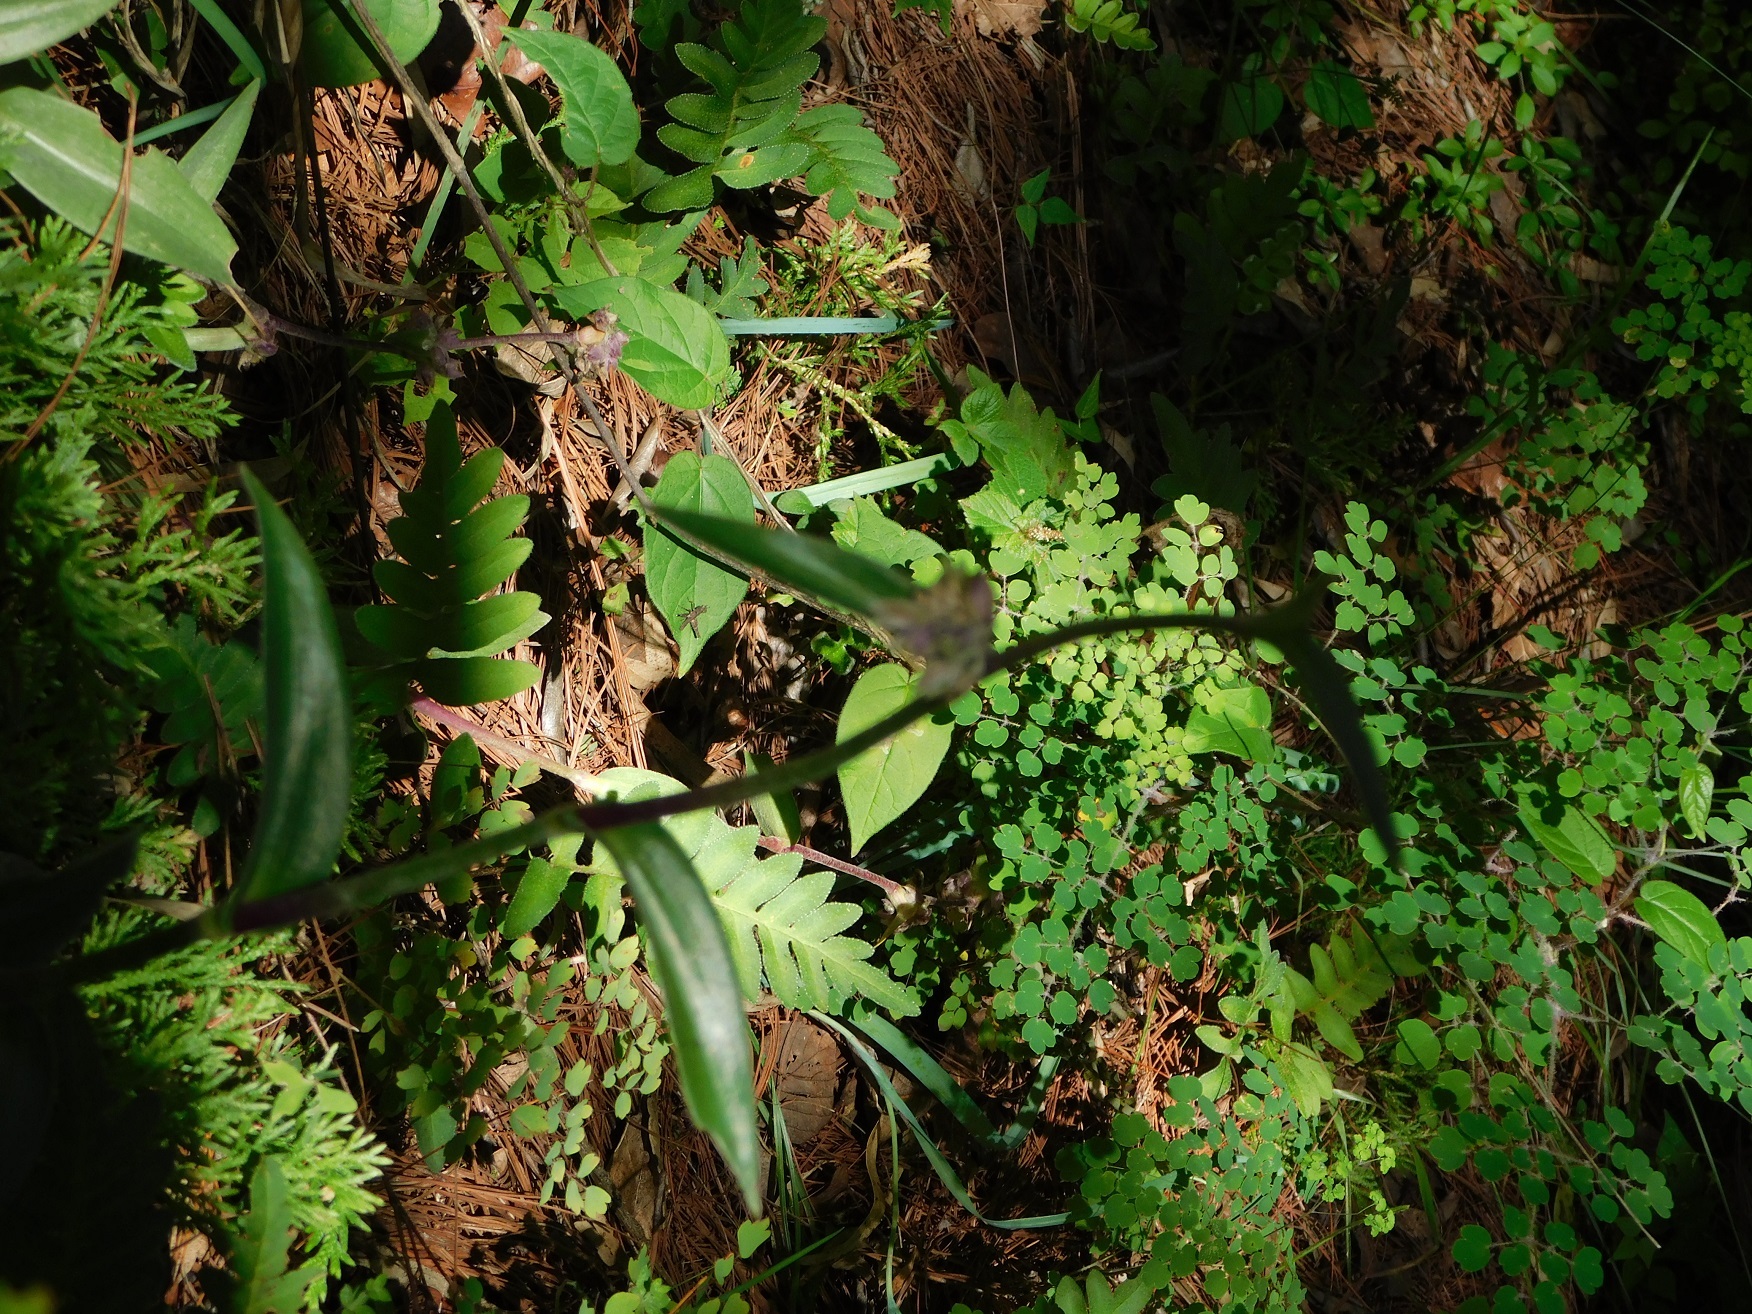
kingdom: Plantae
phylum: Tracheophyta
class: Liliopsida
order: Commelinales
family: Commelinaceae
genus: Tradescantia
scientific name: Tradescantia crassifolia
